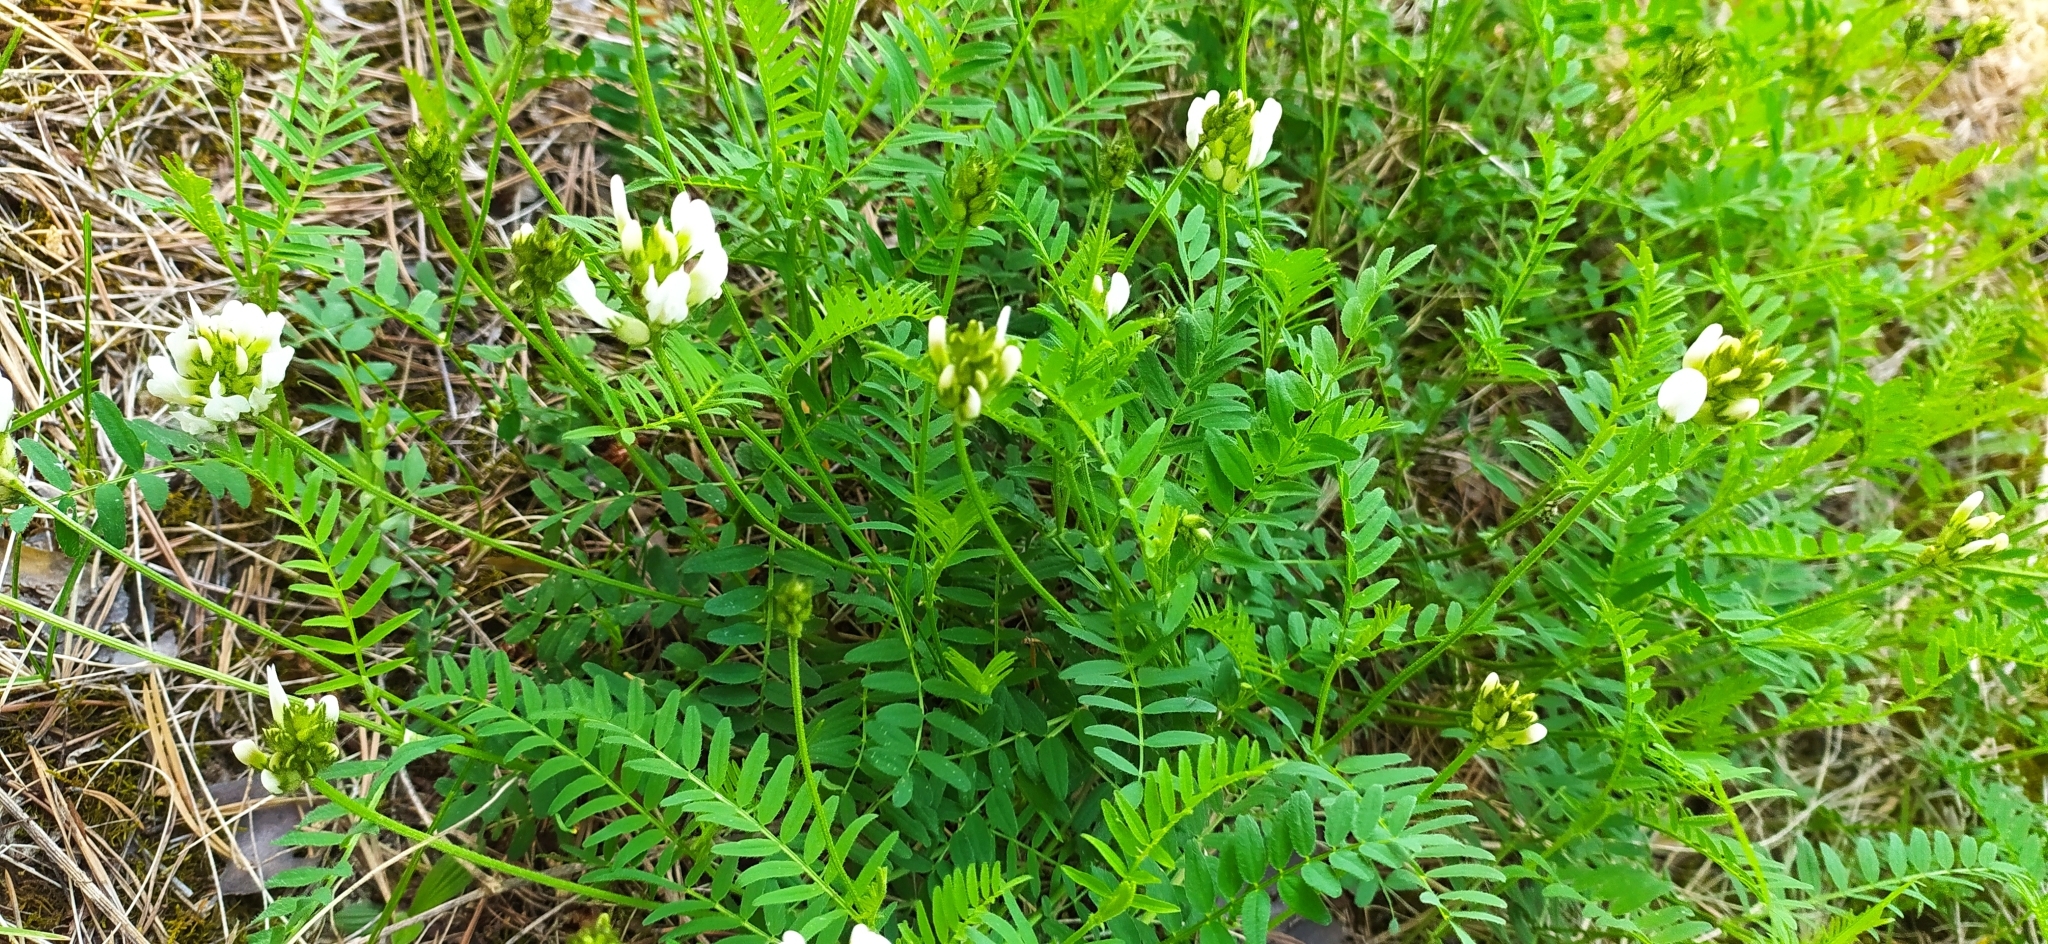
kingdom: Plantae
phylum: Tracheophyta
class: Magnoliopsida
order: Fabales
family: Fabaceae
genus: Astragalus
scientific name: Astragalus danicus
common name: Purple milk-vetch
